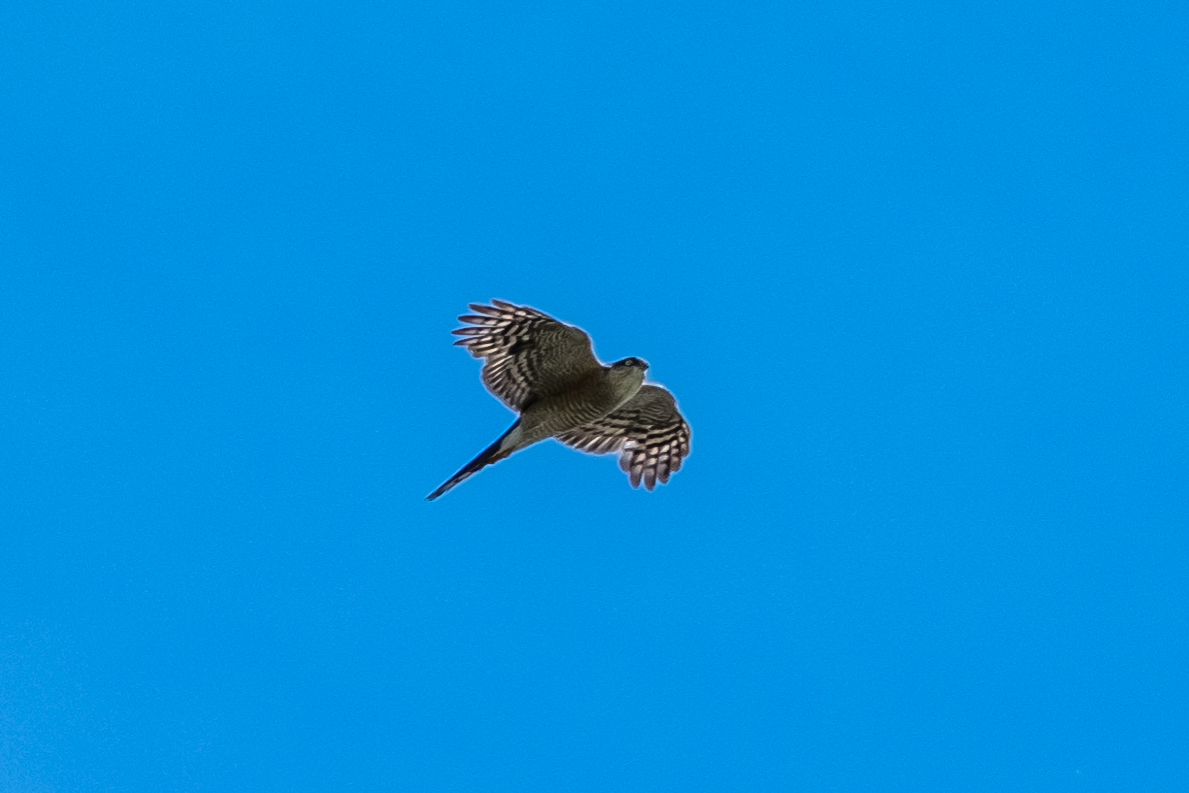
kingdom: Animalia
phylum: Chordata
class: Aves
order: Accipitriformes
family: Accipitridae
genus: Accipiter
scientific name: Accipiter nisus
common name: Eurasian sparrowhawk
